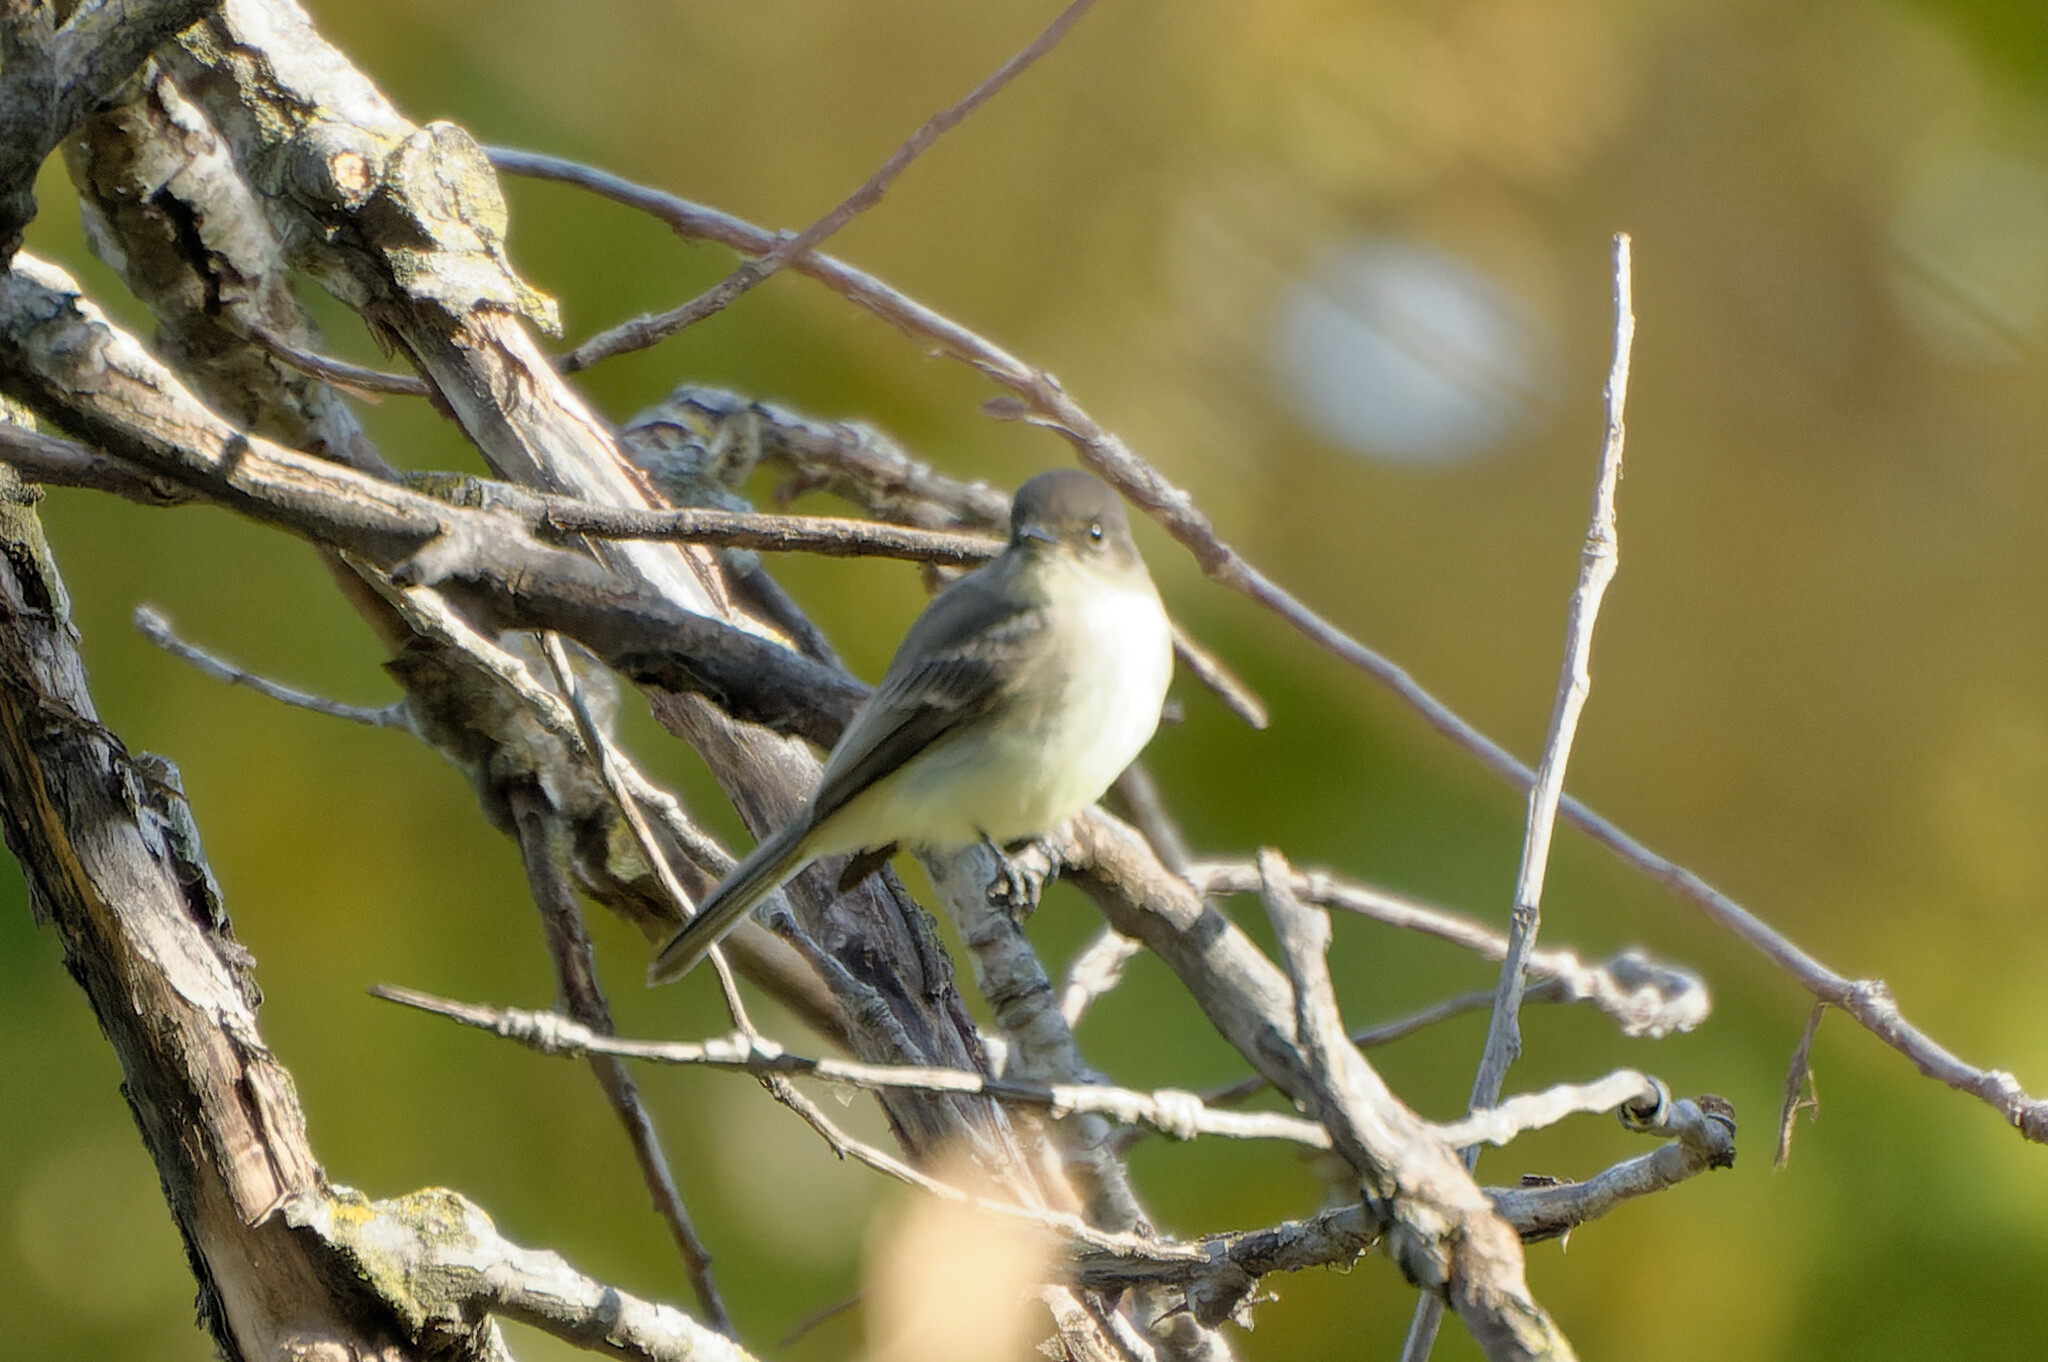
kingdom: Animalia
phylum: Chordata
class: Aves
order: Passeriformes
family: Tyrannidae
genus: Sayornis
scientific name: Sayornis phoebe
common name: Eastern phoebe
